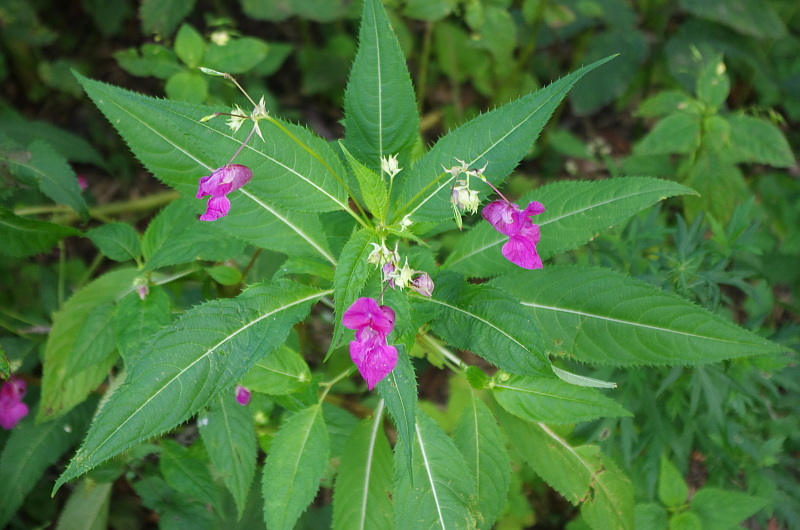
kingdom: Plantae
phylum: Tracheophyta
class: Magnoliopsida
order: Ericales
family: Balsaminaceae
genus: Impatiens
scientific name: Impatiens glandulifera
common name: Himalayan balsam
